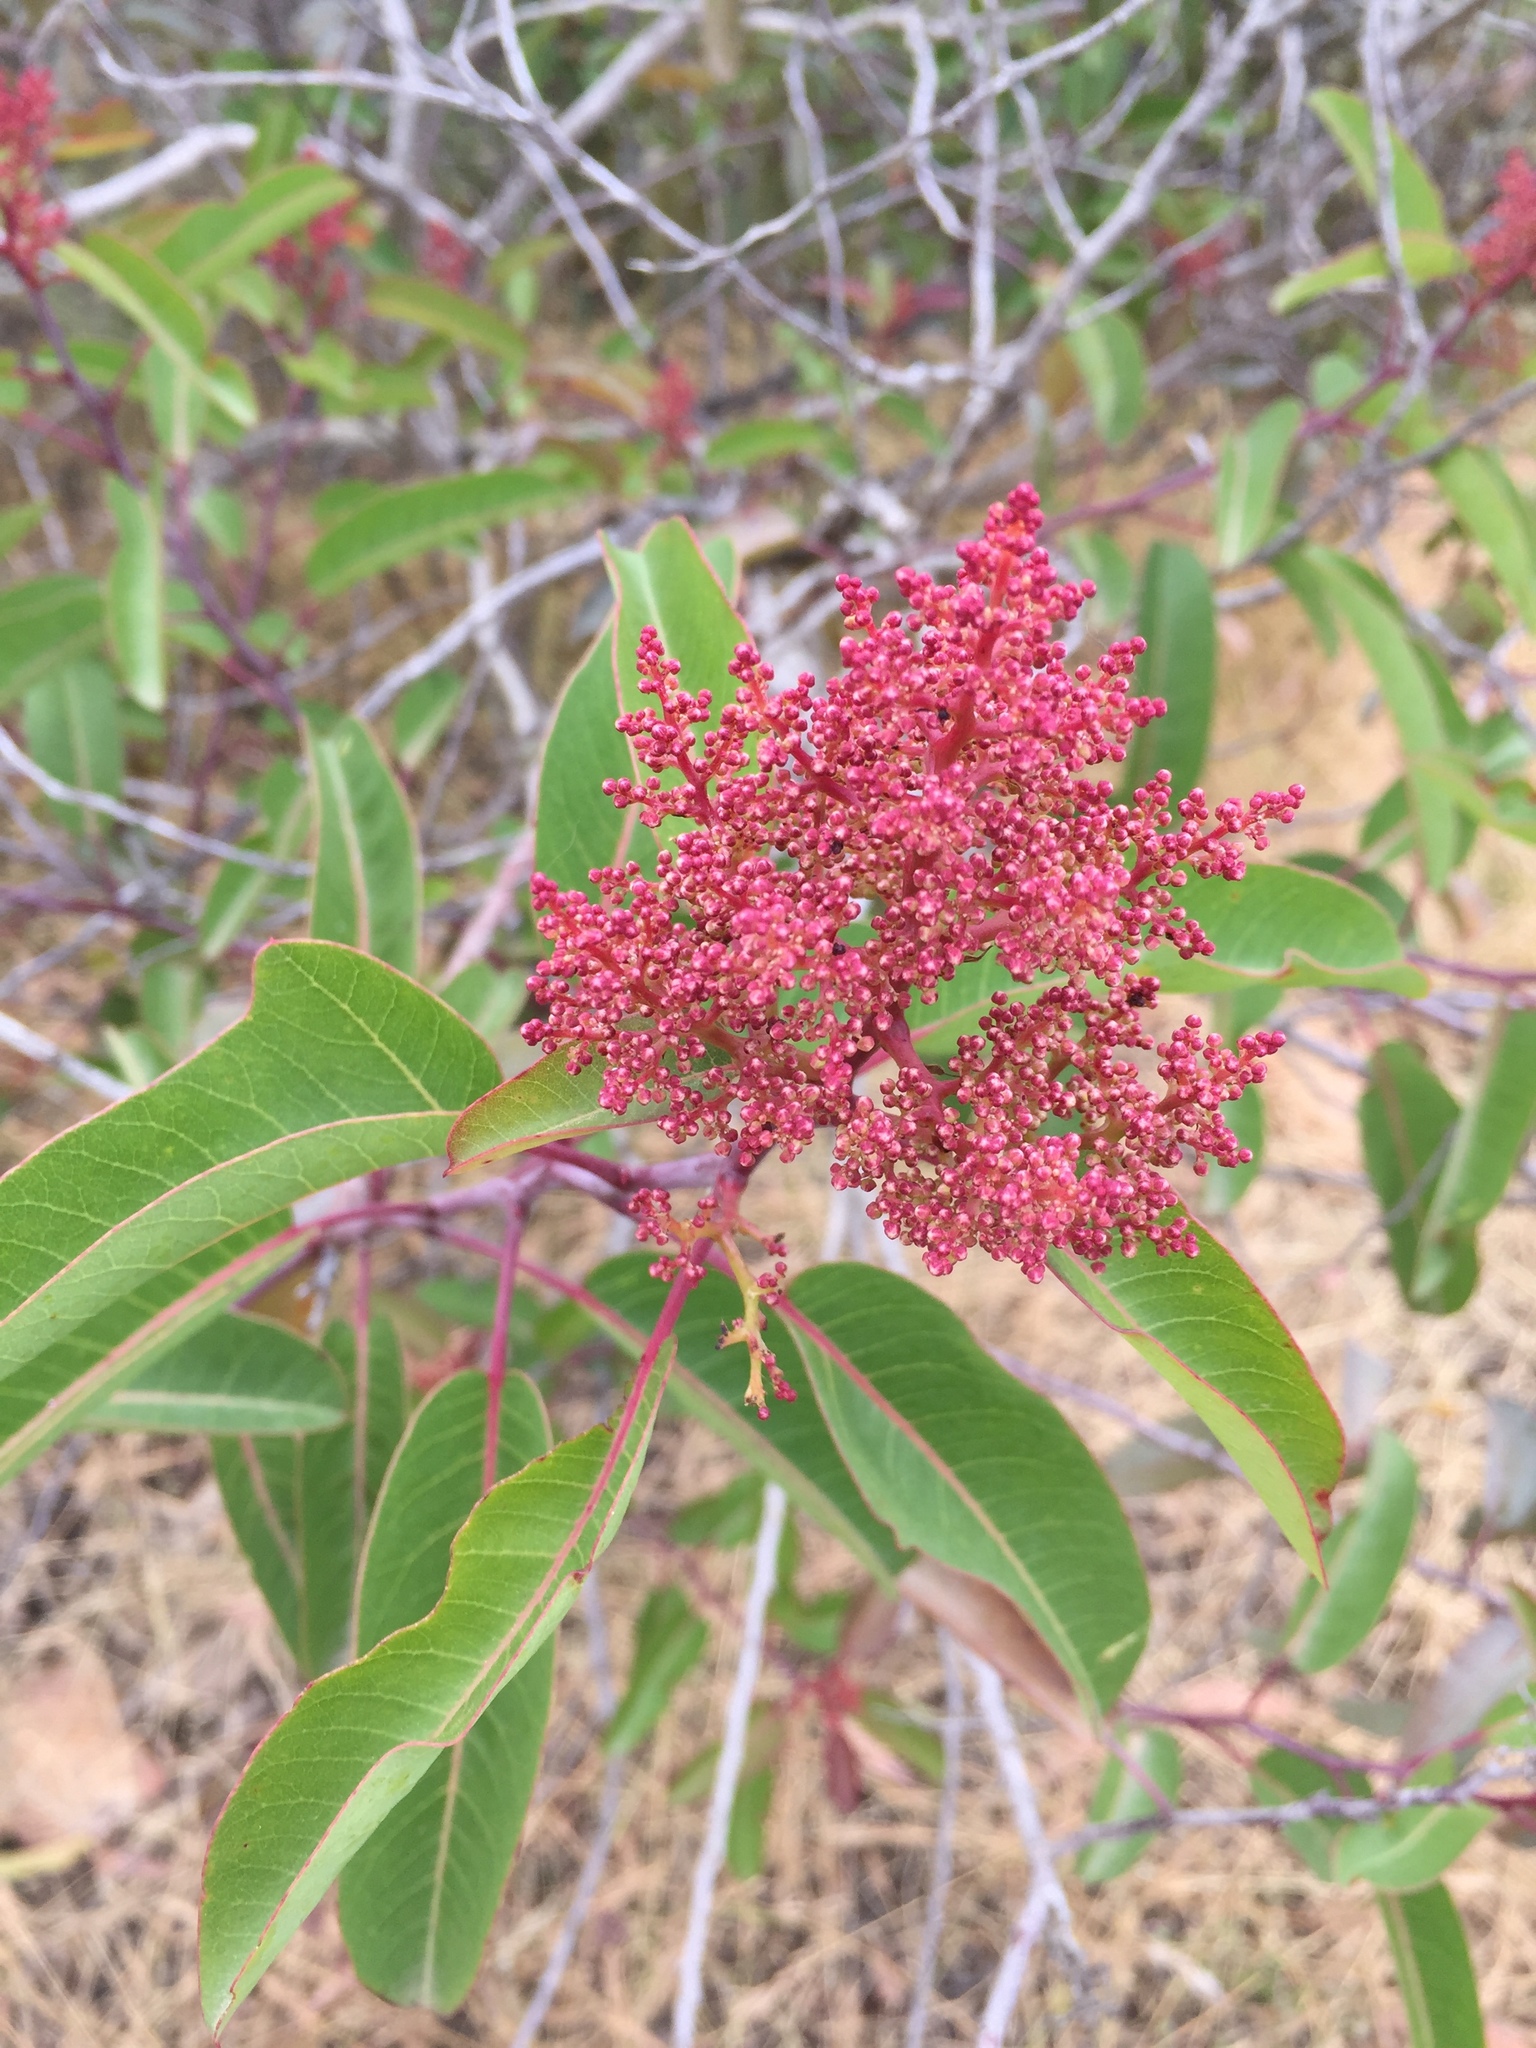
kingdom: Plantae
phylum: Tracheophyta
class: Magnoliopsida
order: Sapindales
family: Anacardiaceae
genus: Malosma
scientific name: Malosma laurina
